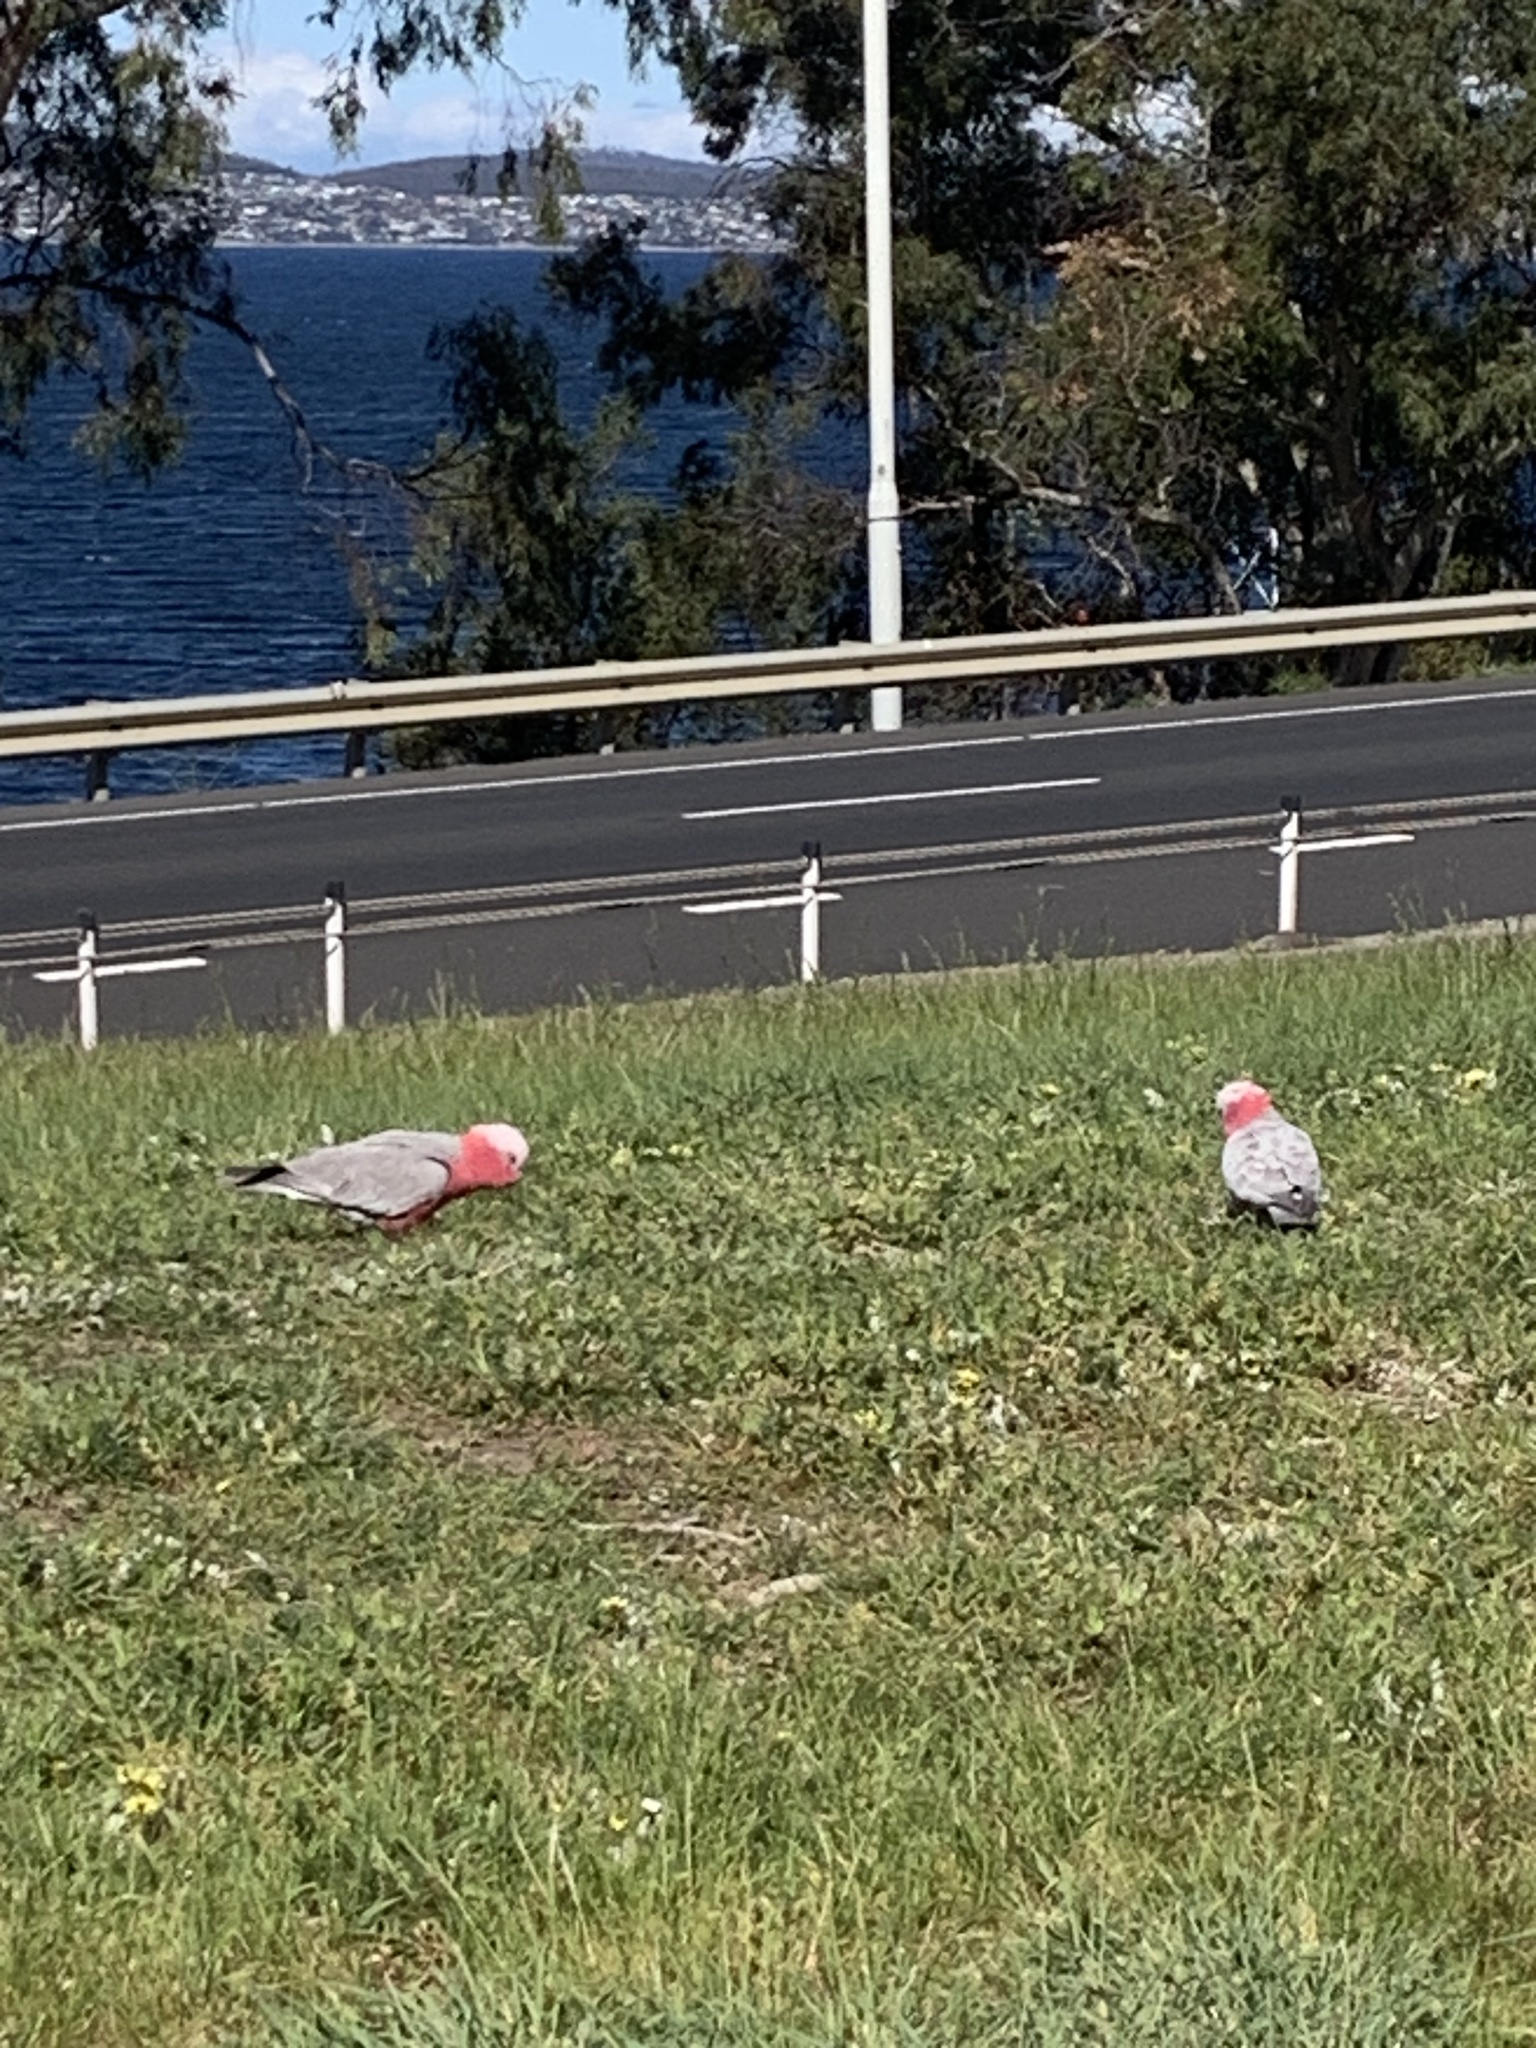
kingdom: Animalia
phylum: Chordata
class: Aves
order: Psittaciformes
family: Psittacidae
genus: Eolophus
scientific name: Eolophus roseicapilla
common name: Galah
